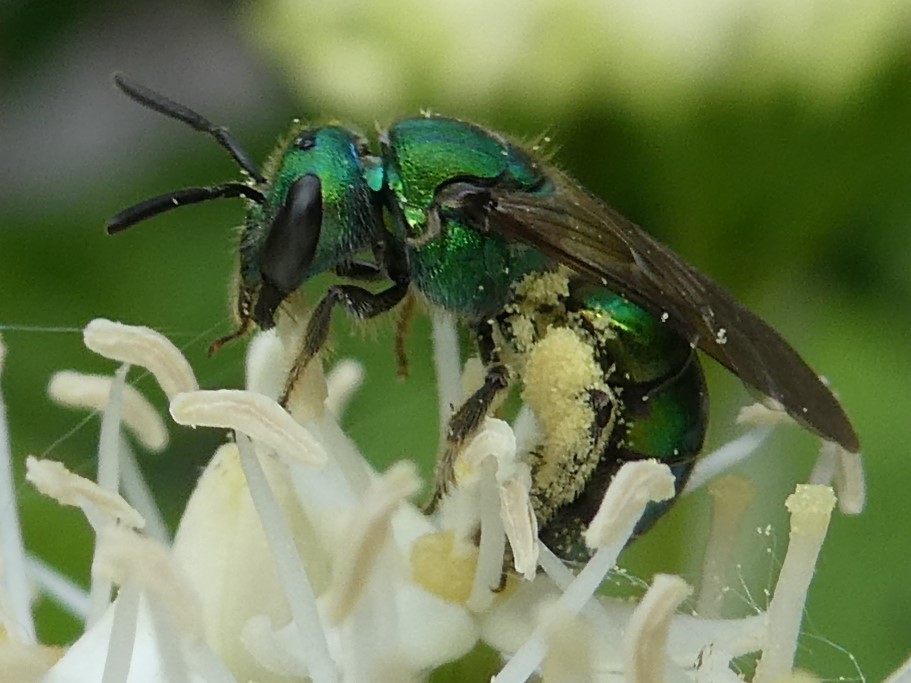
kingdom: Animalia
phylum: Arthropoda
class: Insecta
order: Hymenoptera
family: Halictidae
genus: Augochlora
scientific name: Augochlora pura
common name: Pure green sweat bee
